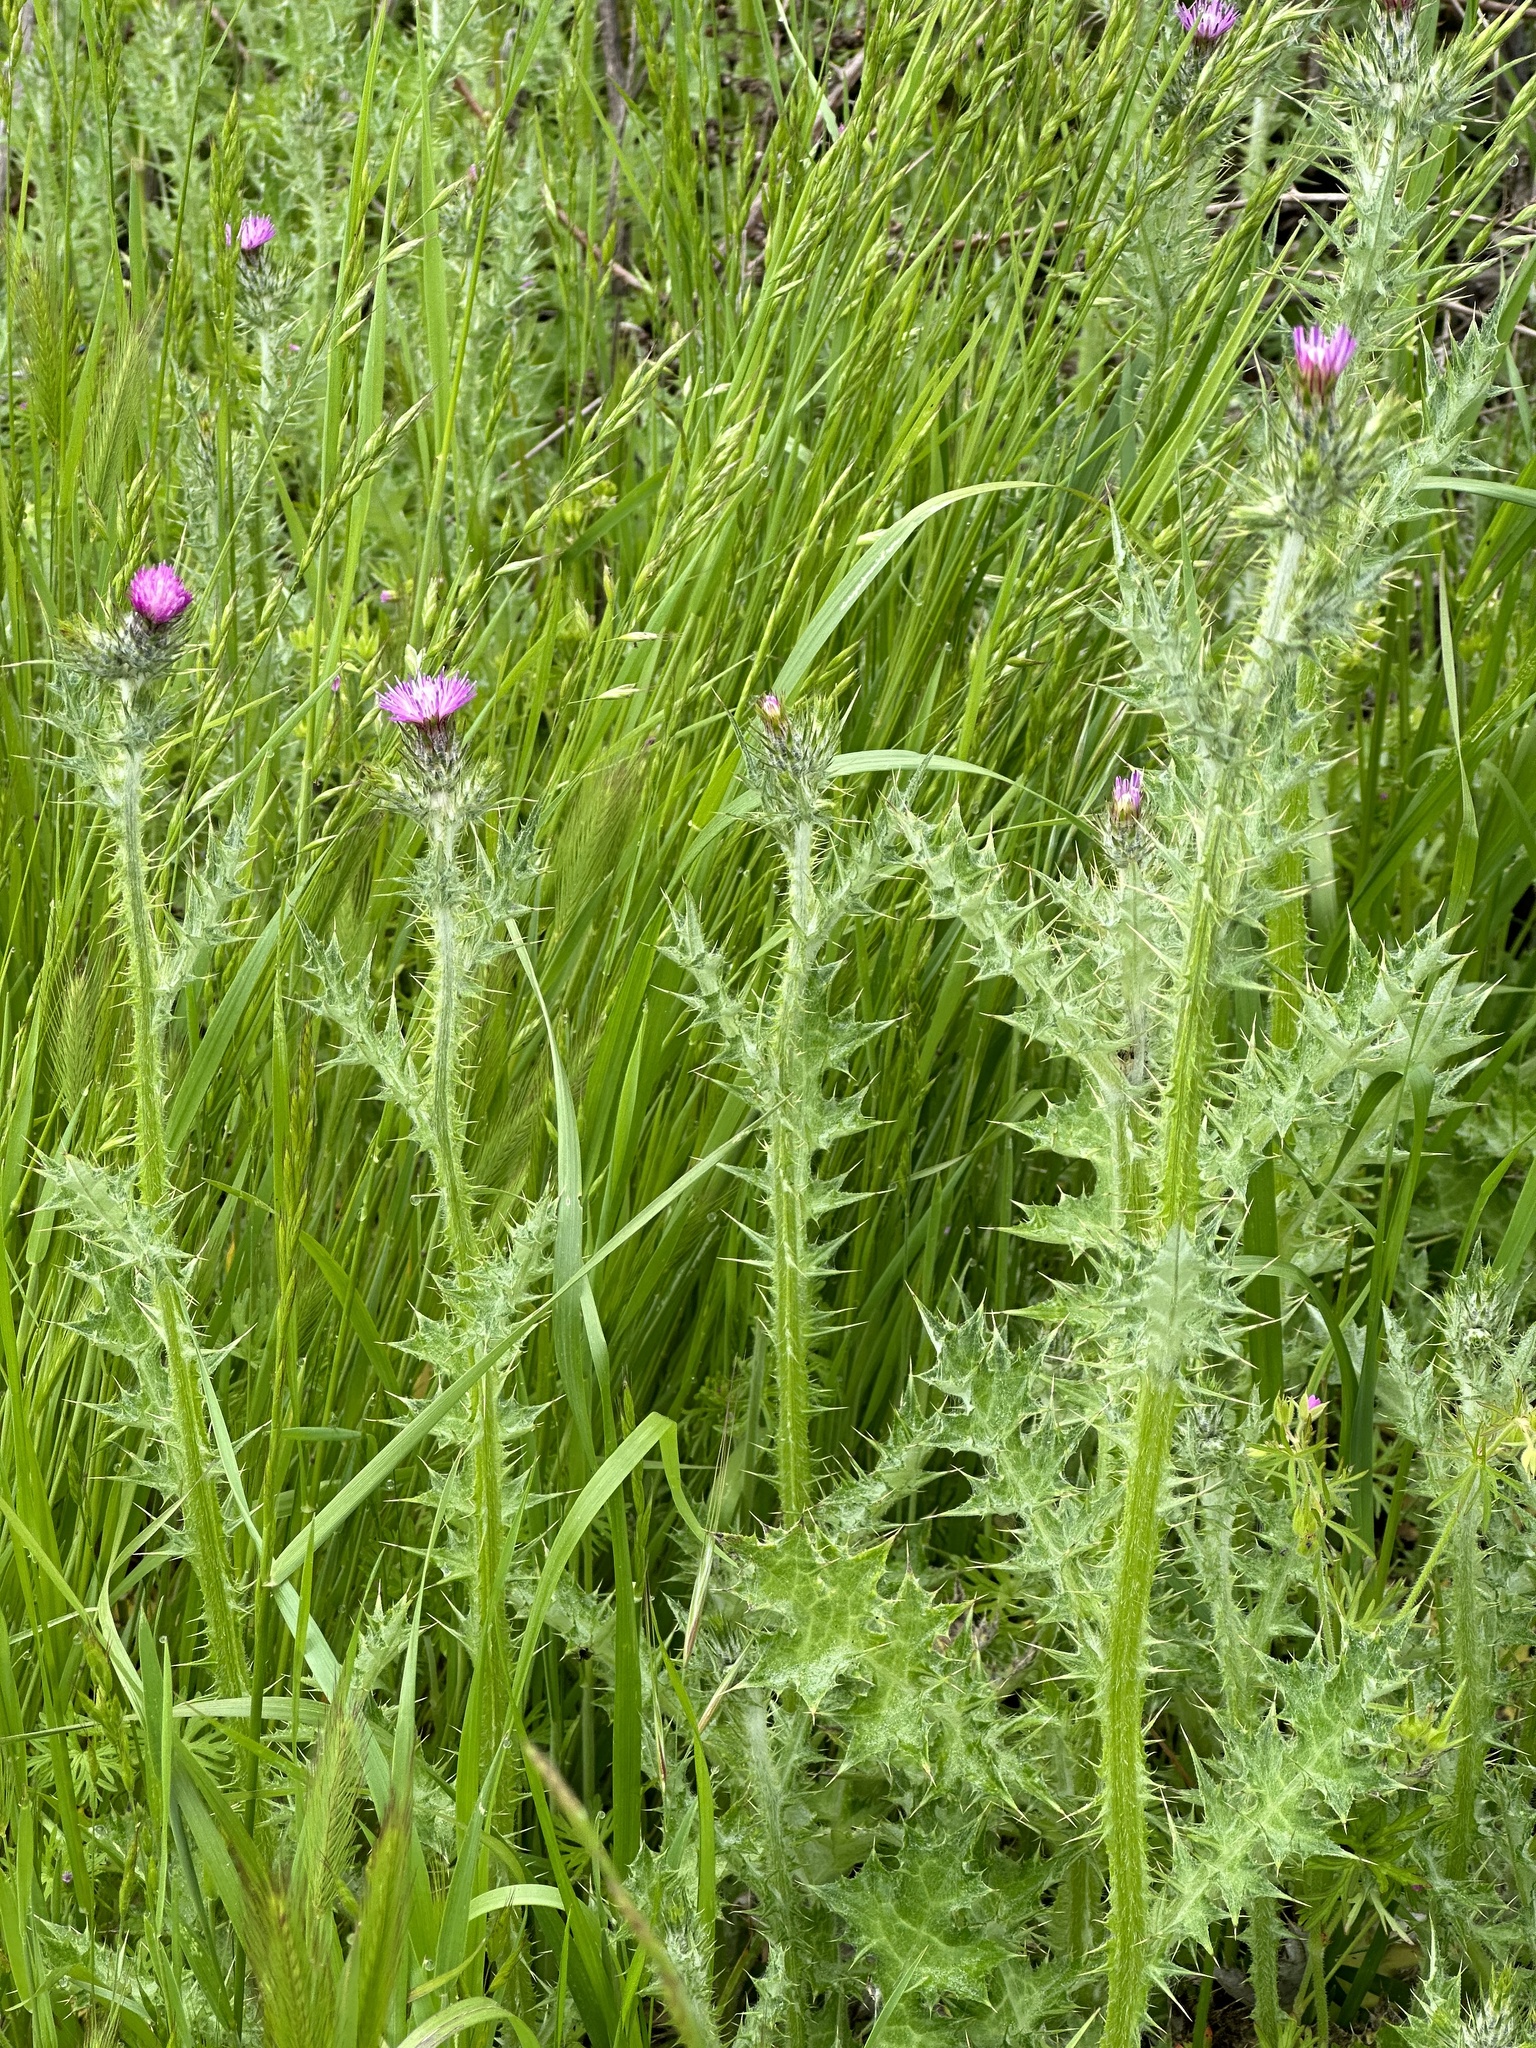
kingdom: Plantae
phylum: Tracheophyta
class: Magnoliopsida
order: Asterales
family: Asteraceae
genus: Carduus
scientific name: Carduus pycnocephalus
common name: Plymouth thistle
